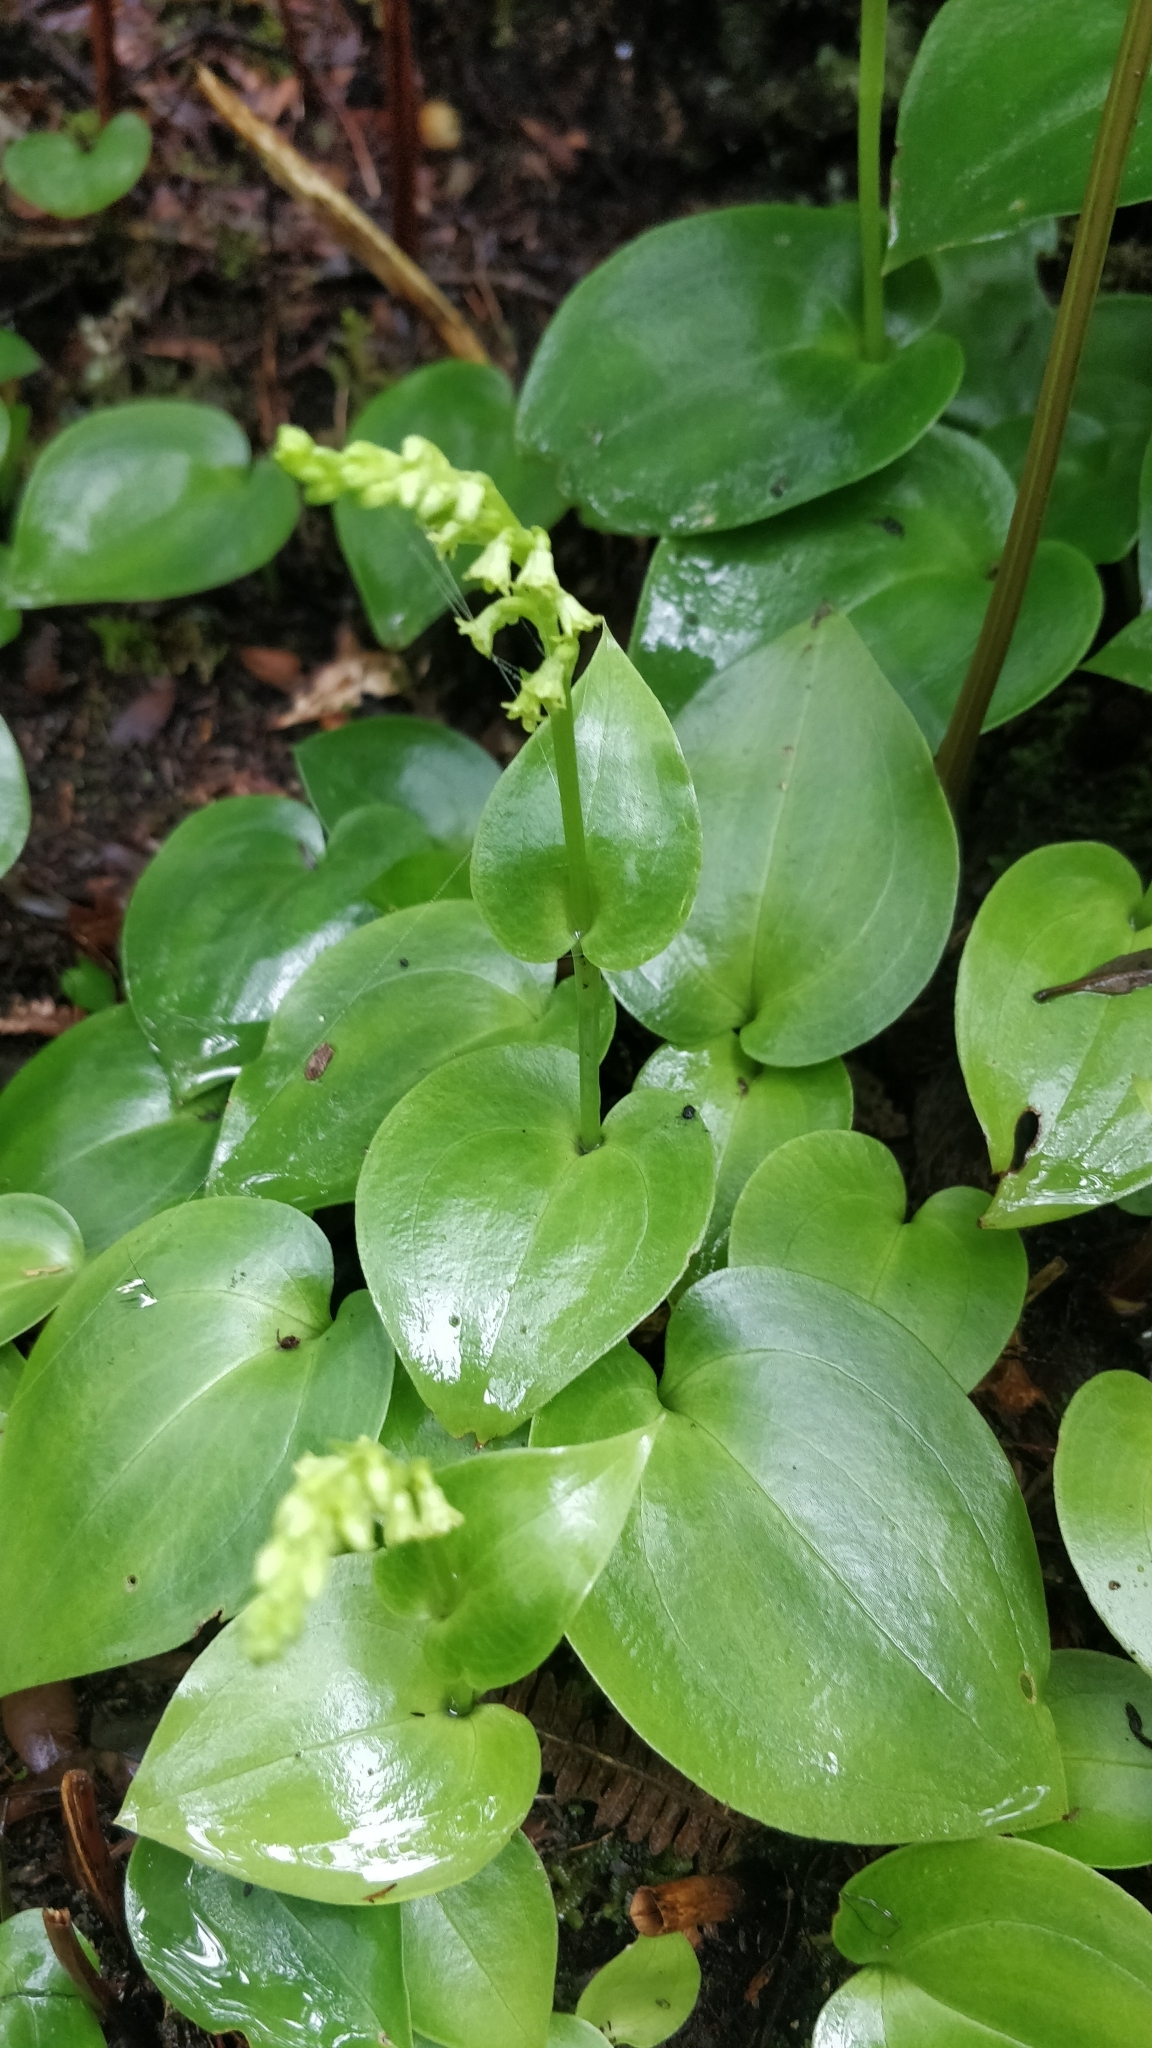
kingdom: Plantae
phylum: Tracheophyta
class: Liliopsida
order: Asparagales
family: Orchidaceae
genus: Gennaria
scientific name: Gennaria diphylla
